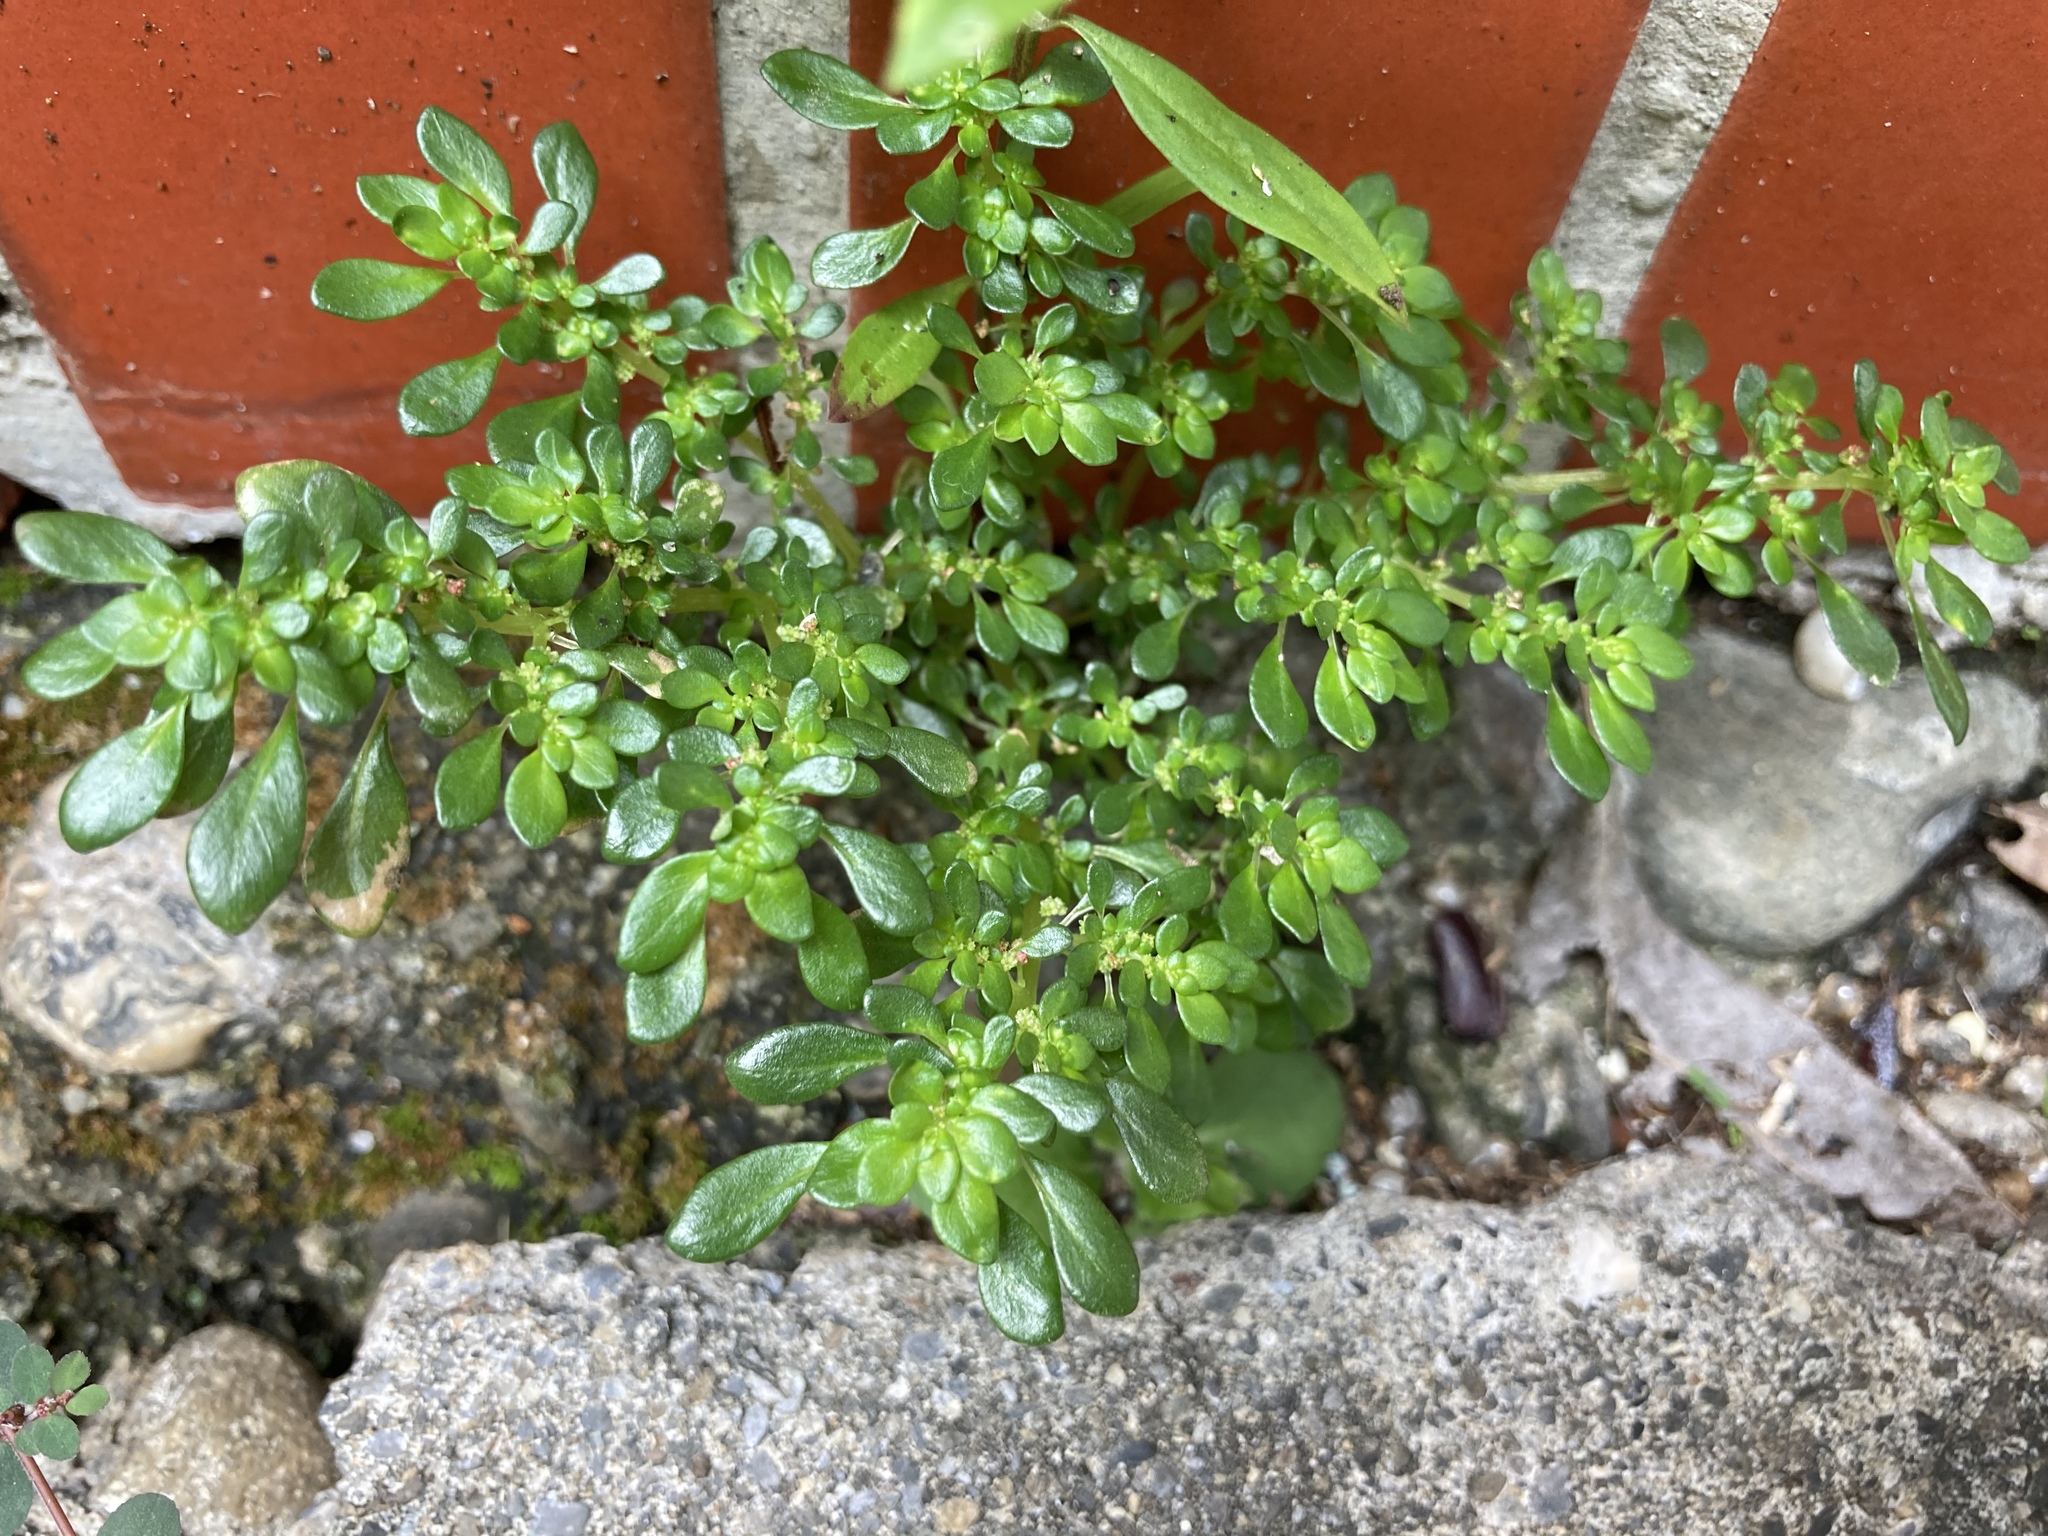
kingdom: Plantae
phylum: Tracheophyta
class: Magnoliopsida
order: Rosales
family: Urticaceae
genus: Pilea
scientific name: Pilea microphylla
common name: Artillery-plant
